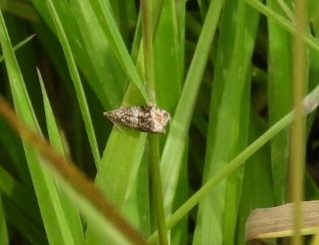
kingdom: Animalia
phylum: Arthropoda
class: Insecta
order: Lepidoptera
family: Tortricidae
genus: Syricoris
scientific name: Syricoris lacunana
